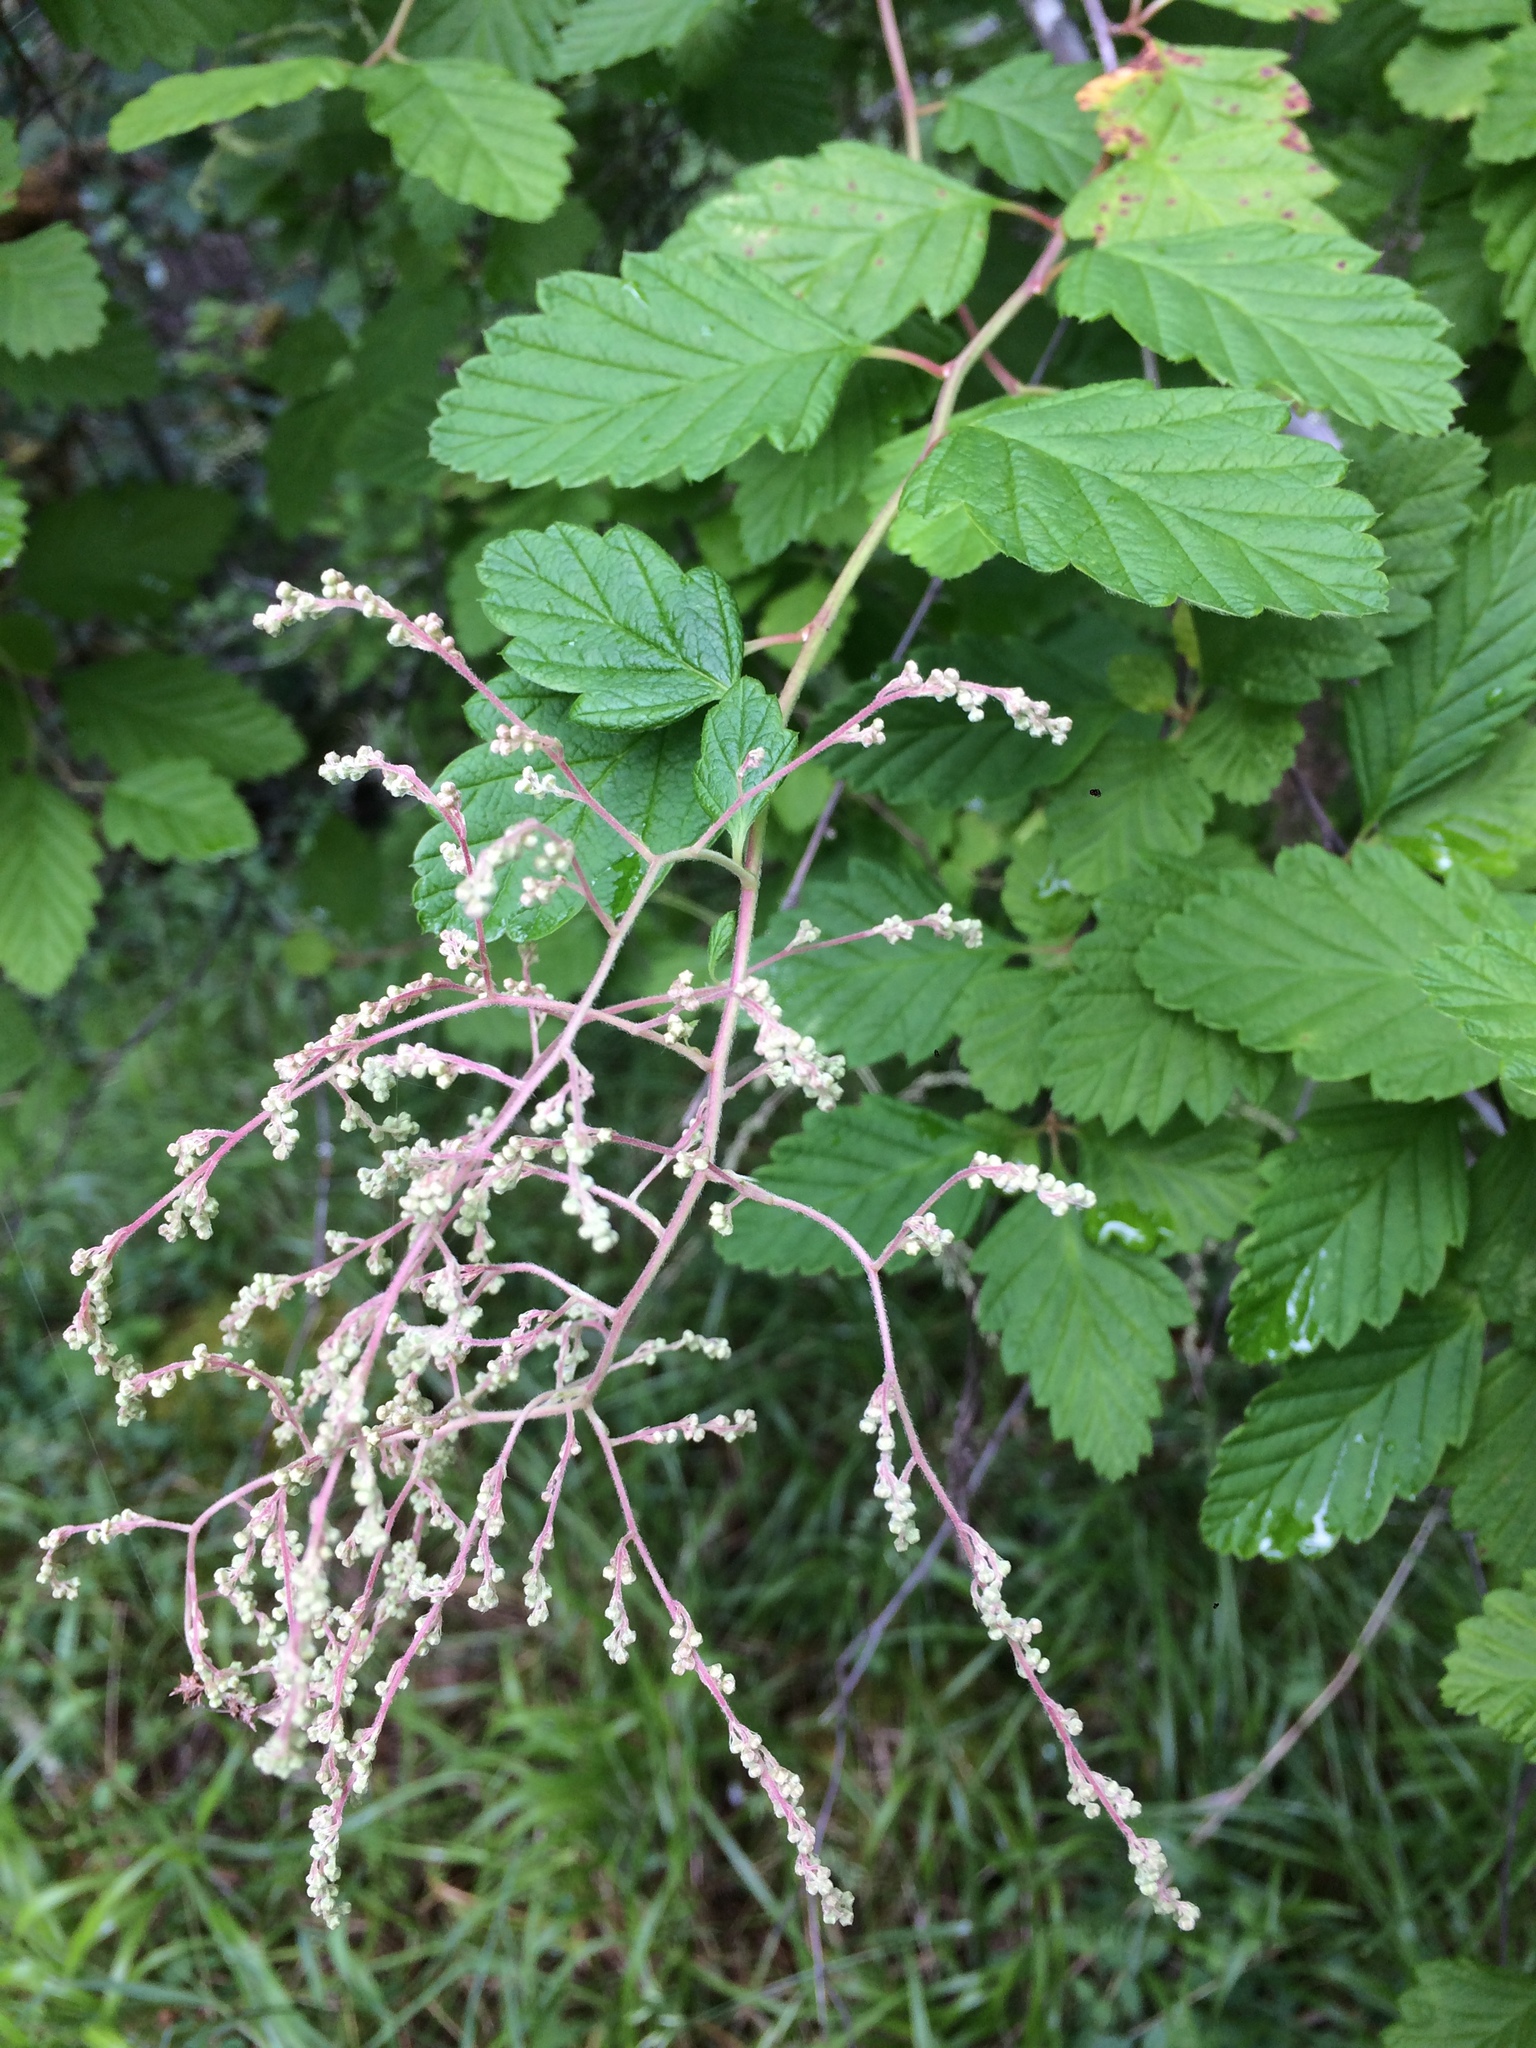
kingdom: Plantae
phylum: Tracheophyta
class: Magnoliopsida
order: Rosales
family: Rosaceae
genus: Holodiscus
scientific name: Holodiscus discolor
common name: Oceanspray
